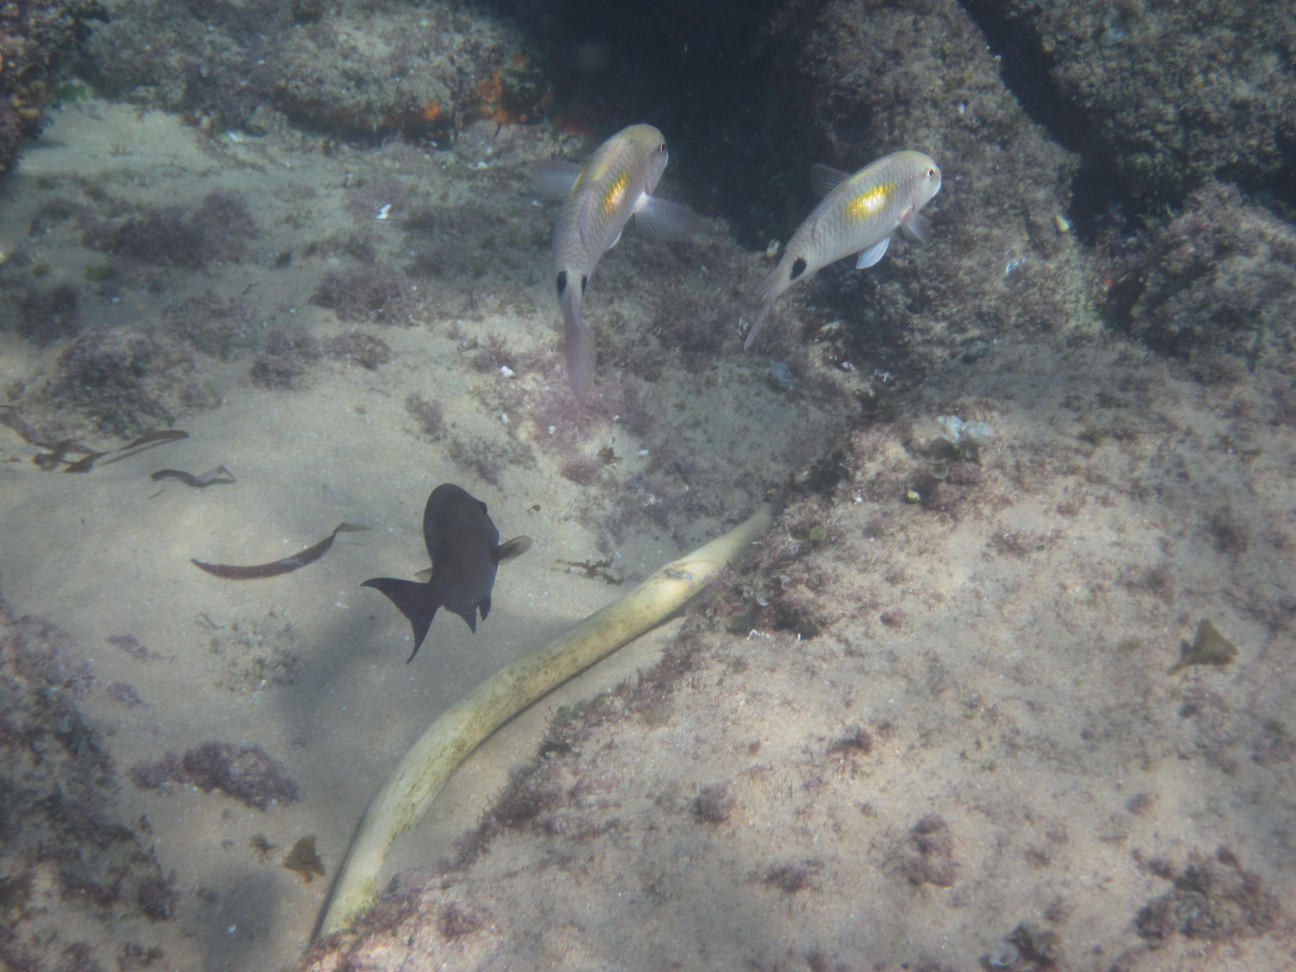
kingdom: Animalia
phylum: Chordata
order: Perciformes
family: Mullidae
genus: Parupeneus
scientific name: Parupeneus indicus
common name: Indian goatfish
